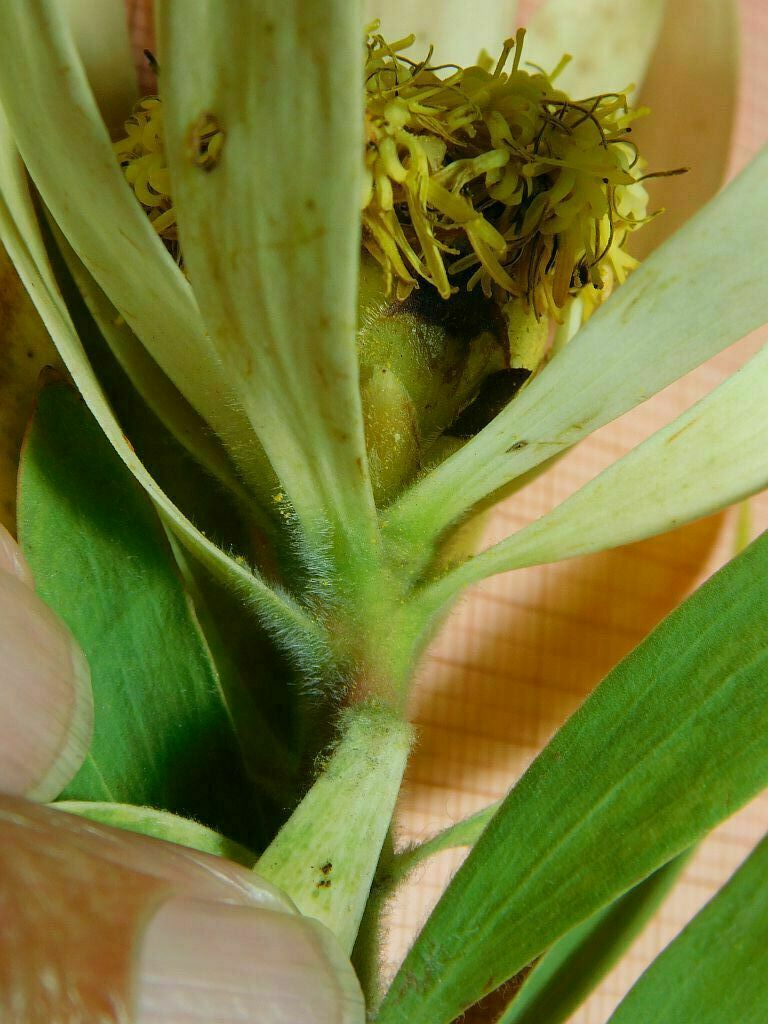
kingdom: Plantae
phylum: Tracheophyta
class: Magnoliopsida
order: Proteales
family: Proteaceae
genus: Leucadendron
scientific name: Leucadendron burchellii
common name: Riviersonderend conebush
